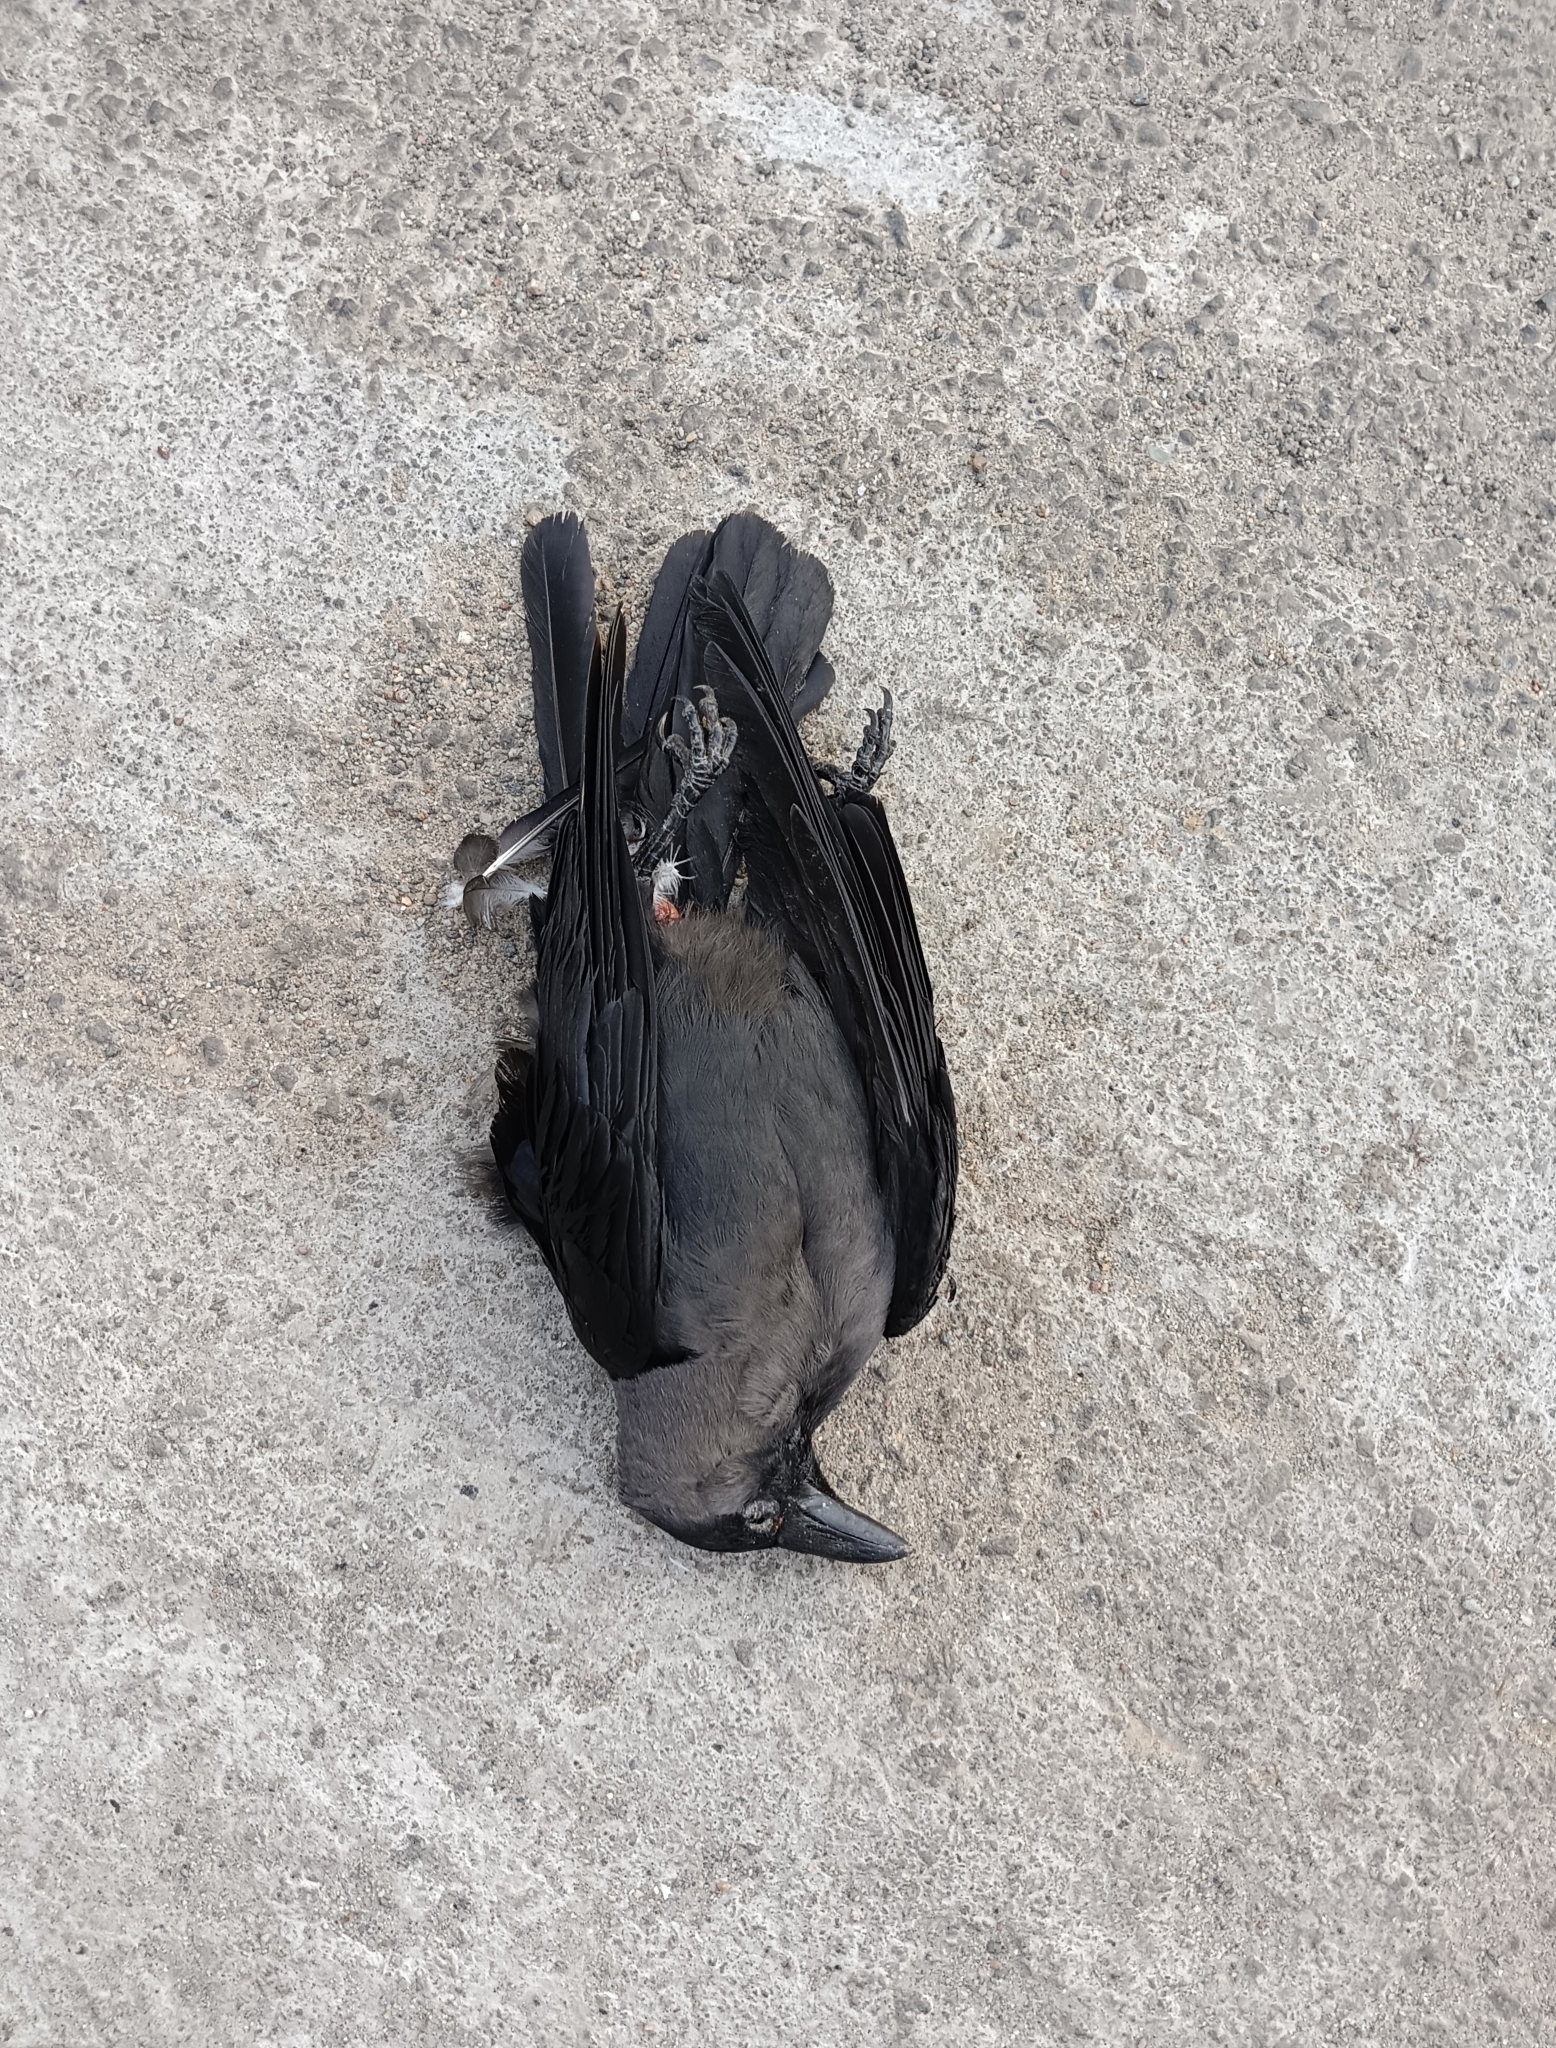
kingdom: Animalia
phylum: Chordata
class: Aves
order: Passeriformes
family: Corvidae
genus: Corvus
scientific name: Corvus splendens
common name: House crow
